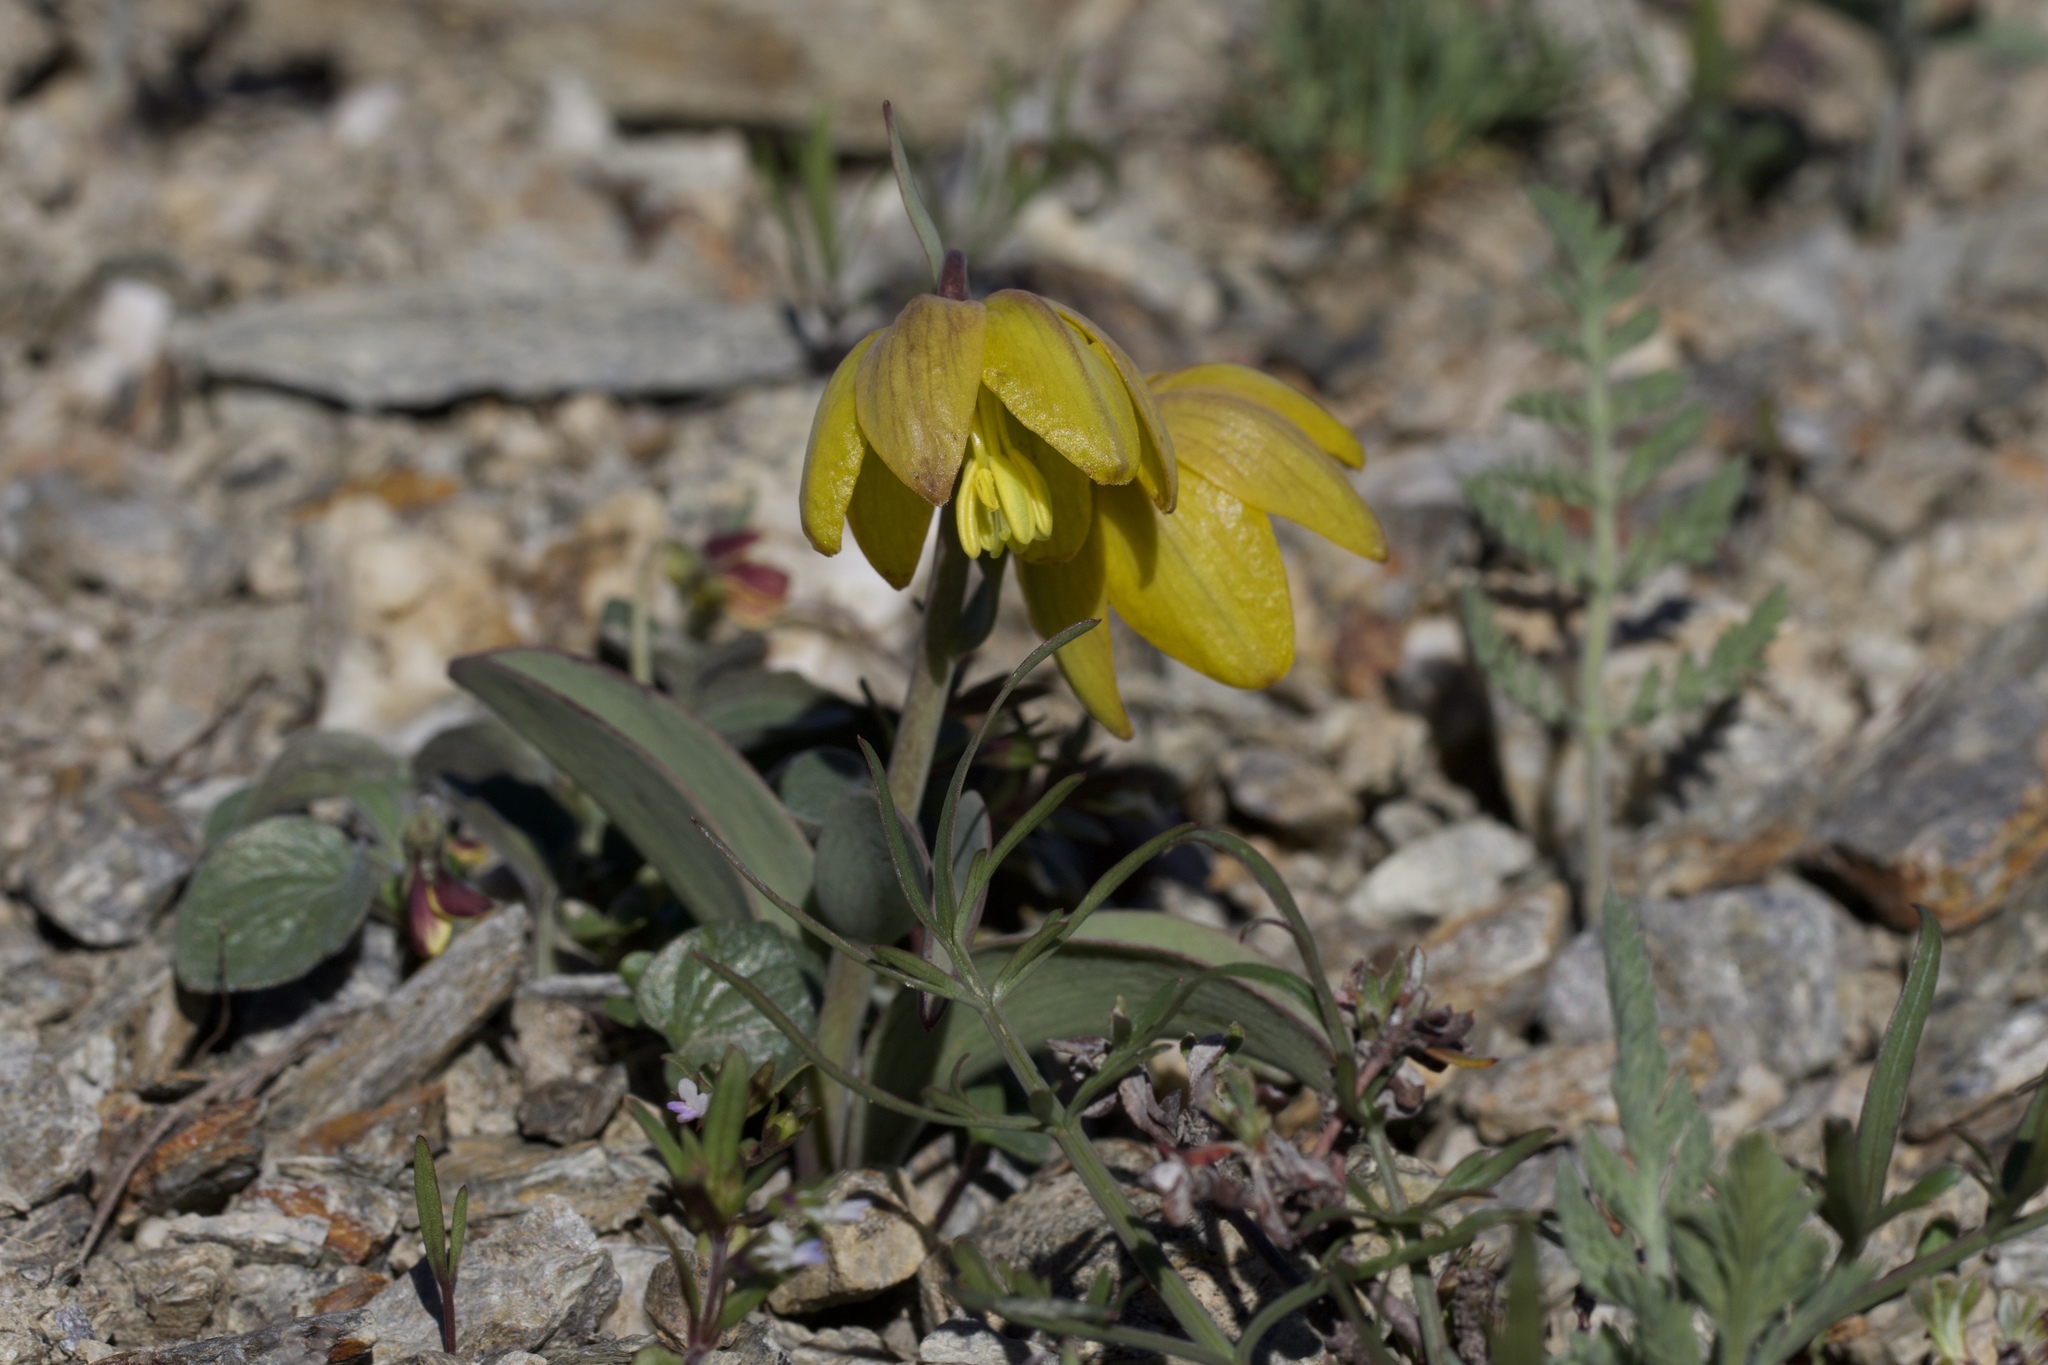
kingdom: Plantae
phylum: Tracheophyta
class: Liliopsida
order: Liliales
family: Liliaceae
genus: Fritillaria
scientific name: Fritillaria glauca
